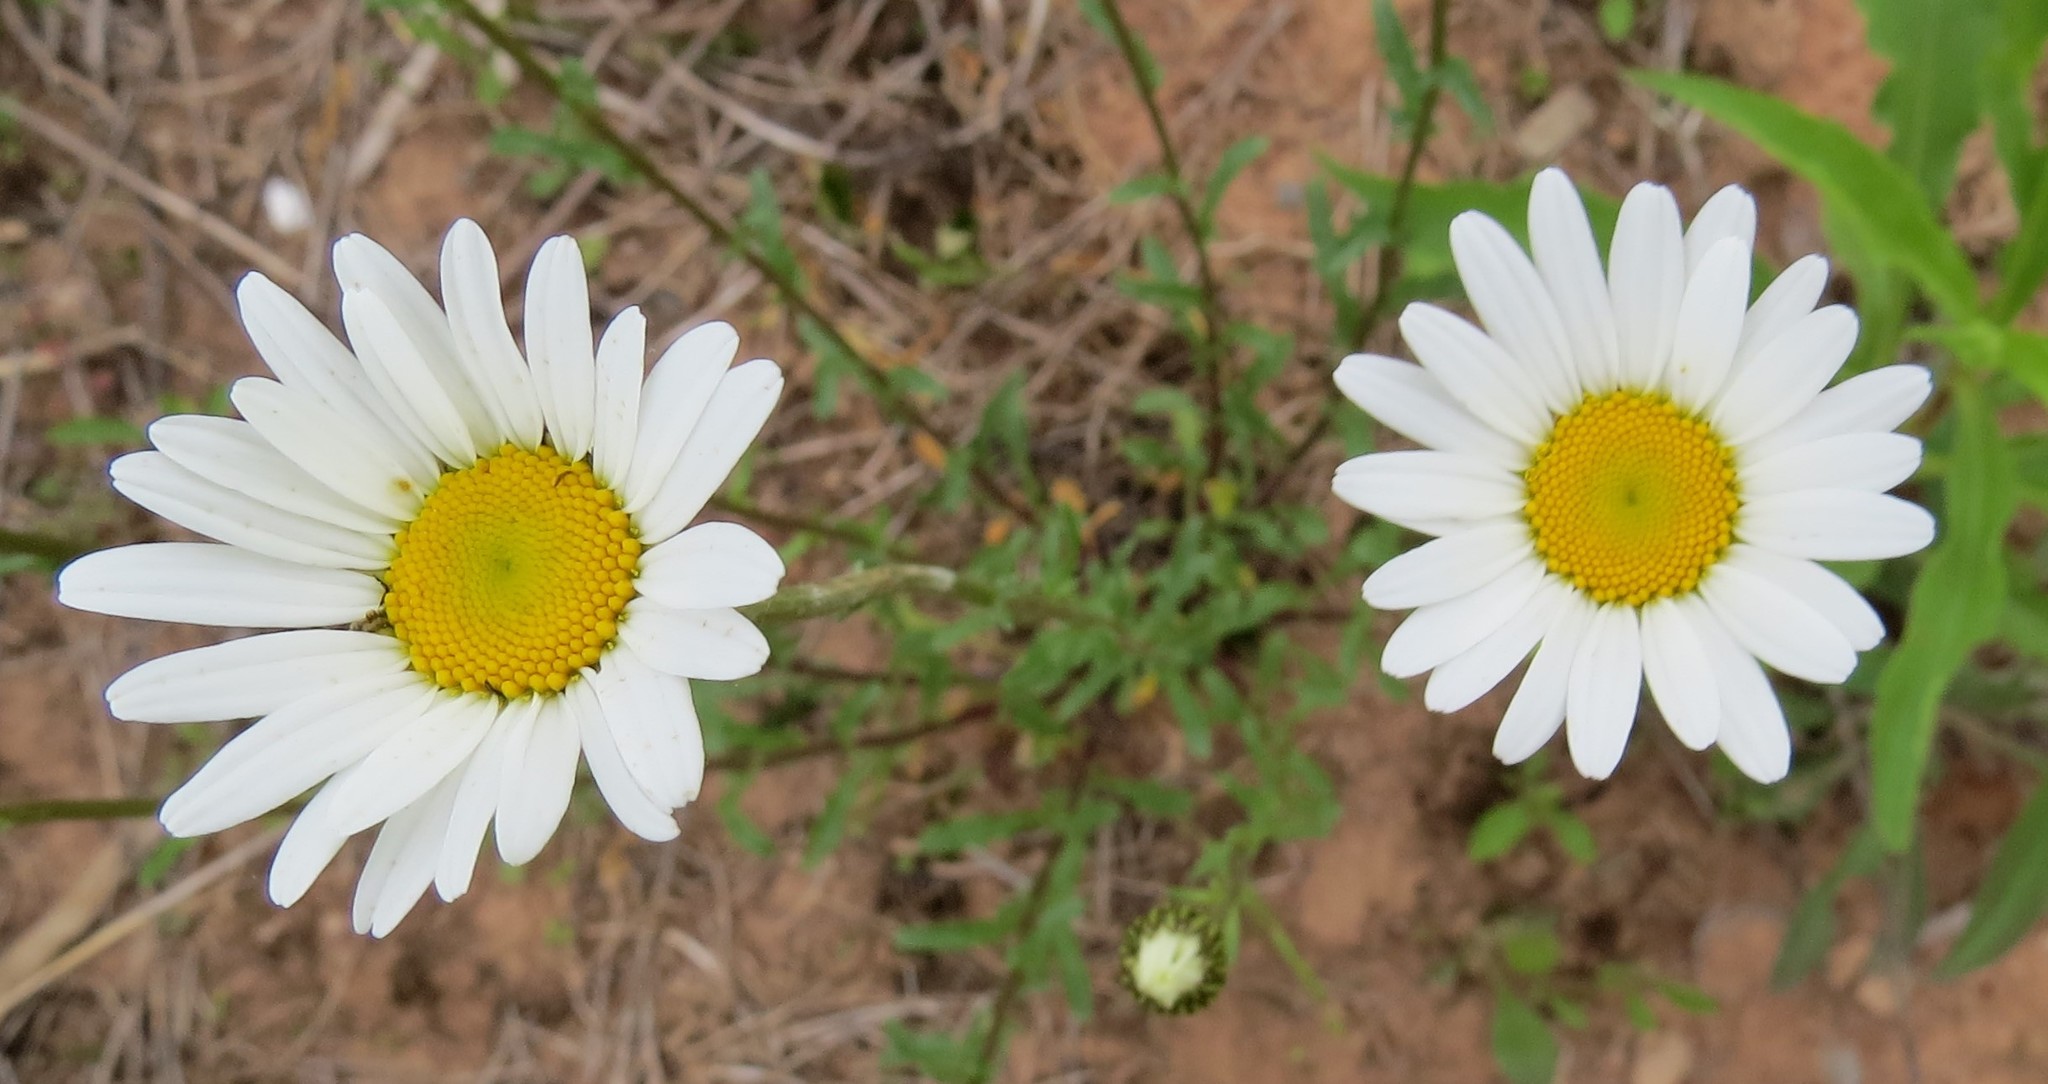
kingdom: Plantae
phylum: Tracheophyta
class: Magnoliopsida
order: Asterales
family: Asteraceae
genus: Leucanthemum
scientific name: Leucanthemum vulgare
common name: Oxeye daisy
